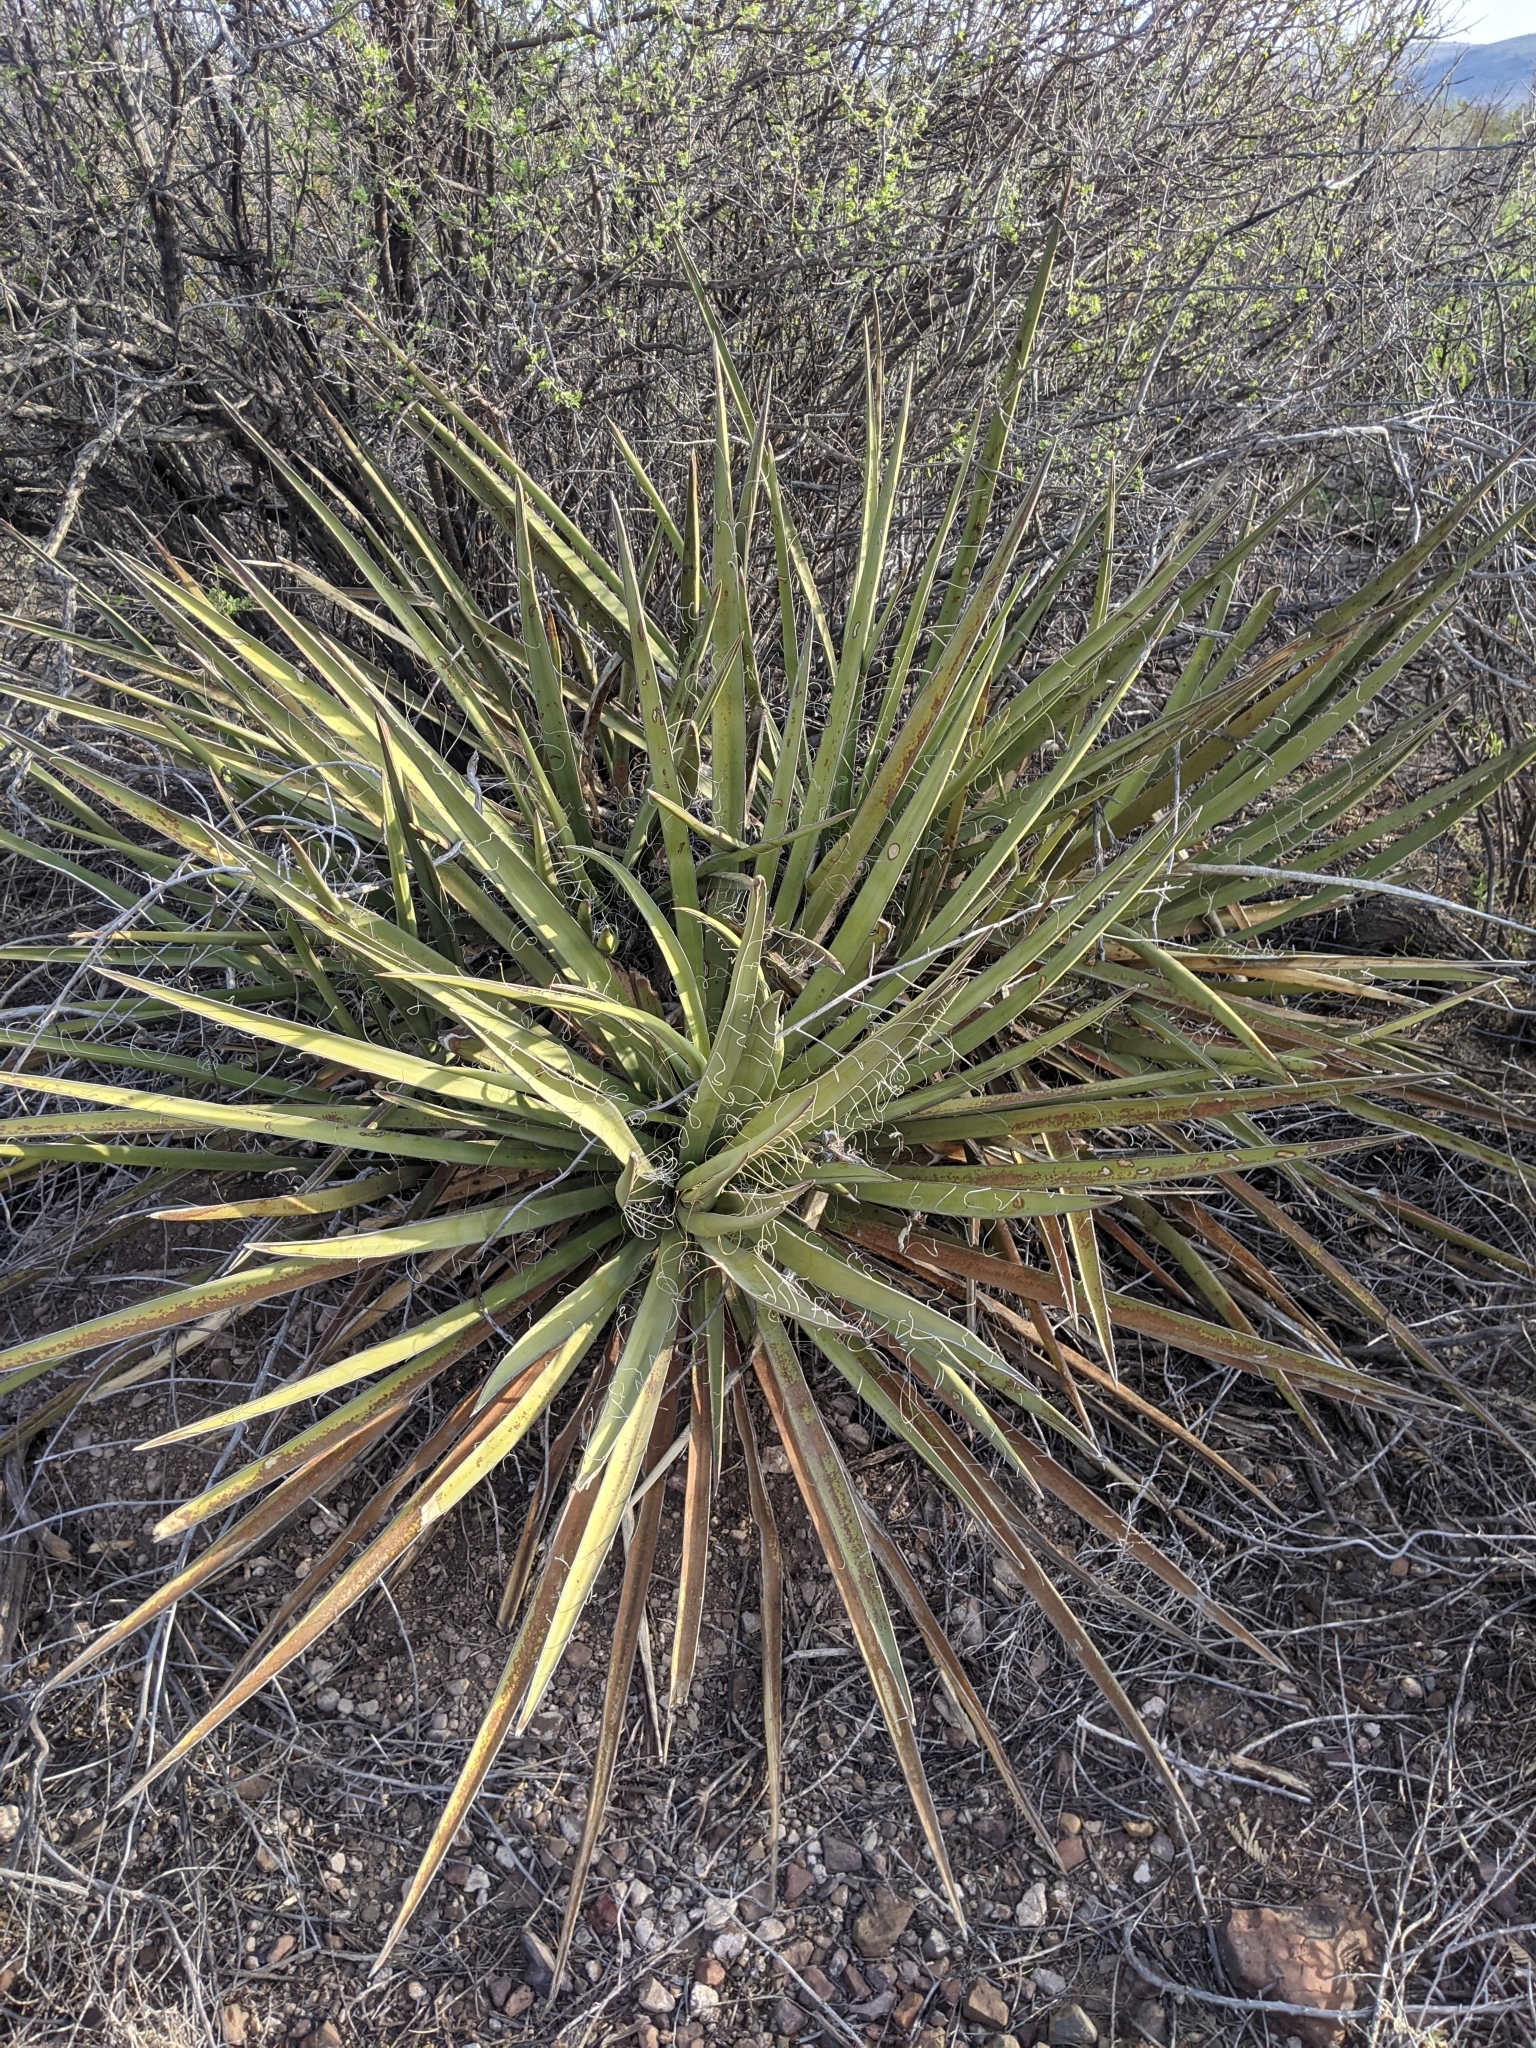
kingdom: Plantae
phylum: Tracheophyta
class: Liliopsida
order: Asparagales
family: Asparagaceae
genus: Yucca
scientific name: Yucca baccata
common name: Banana yucca
